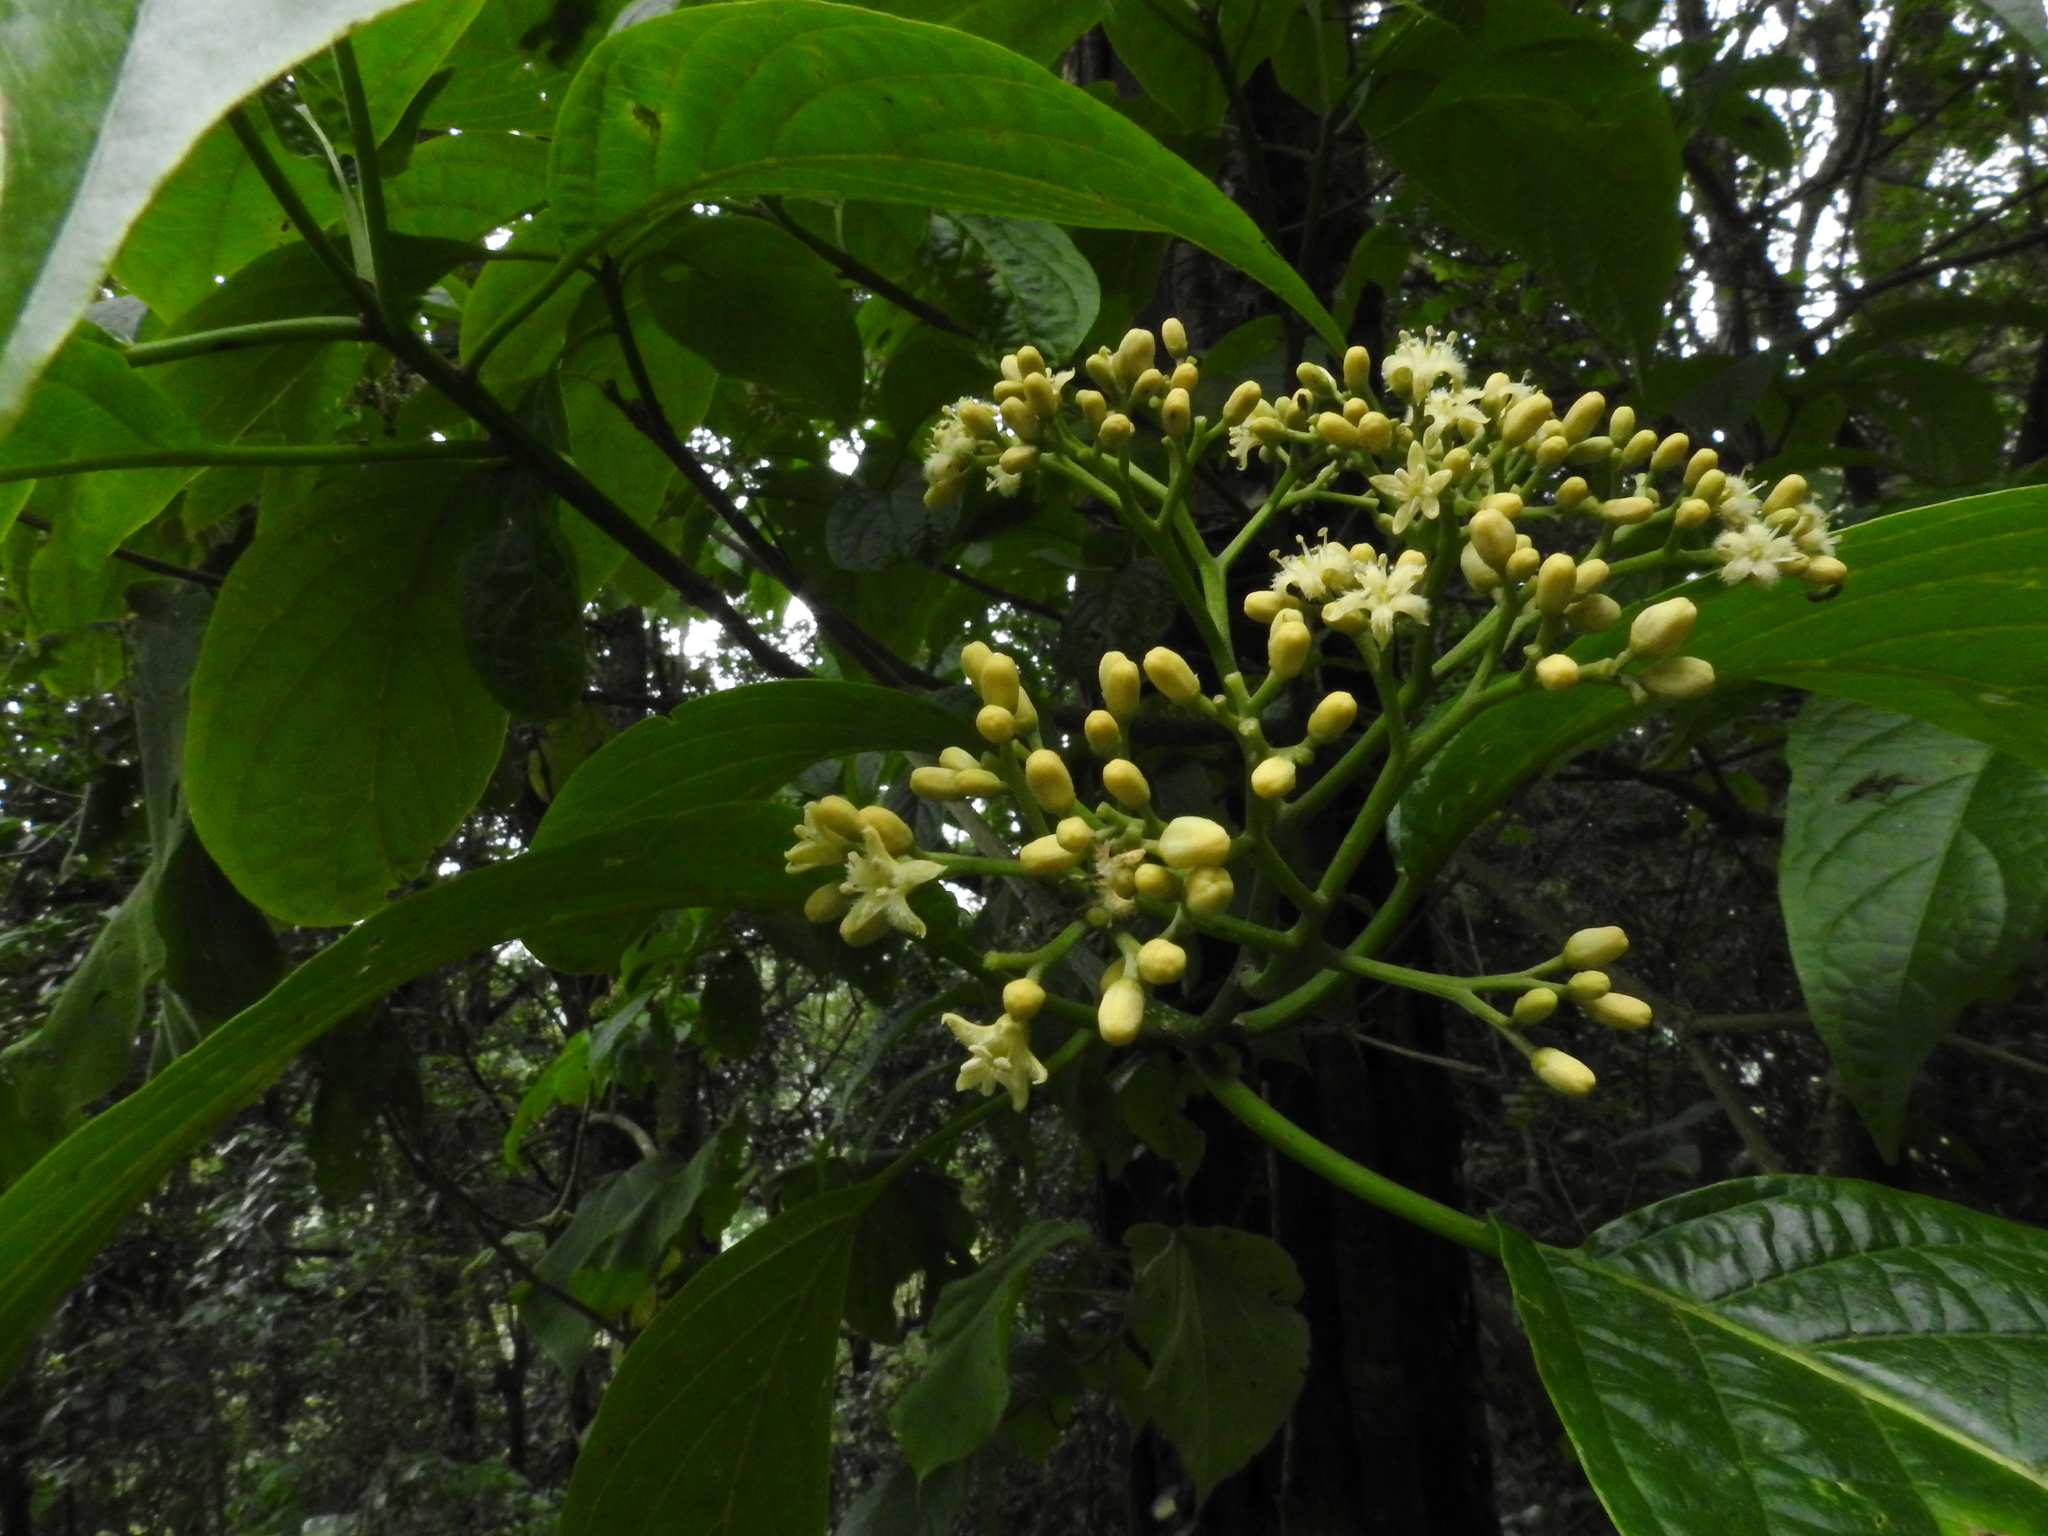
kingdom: Plantae
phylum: Tracheophyta
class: Magnoliopsida
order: Icacinales
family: Icacinaceae
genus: Nothapodytes
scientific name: Nothapodytes nimmoniana
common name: Nothapodytes
